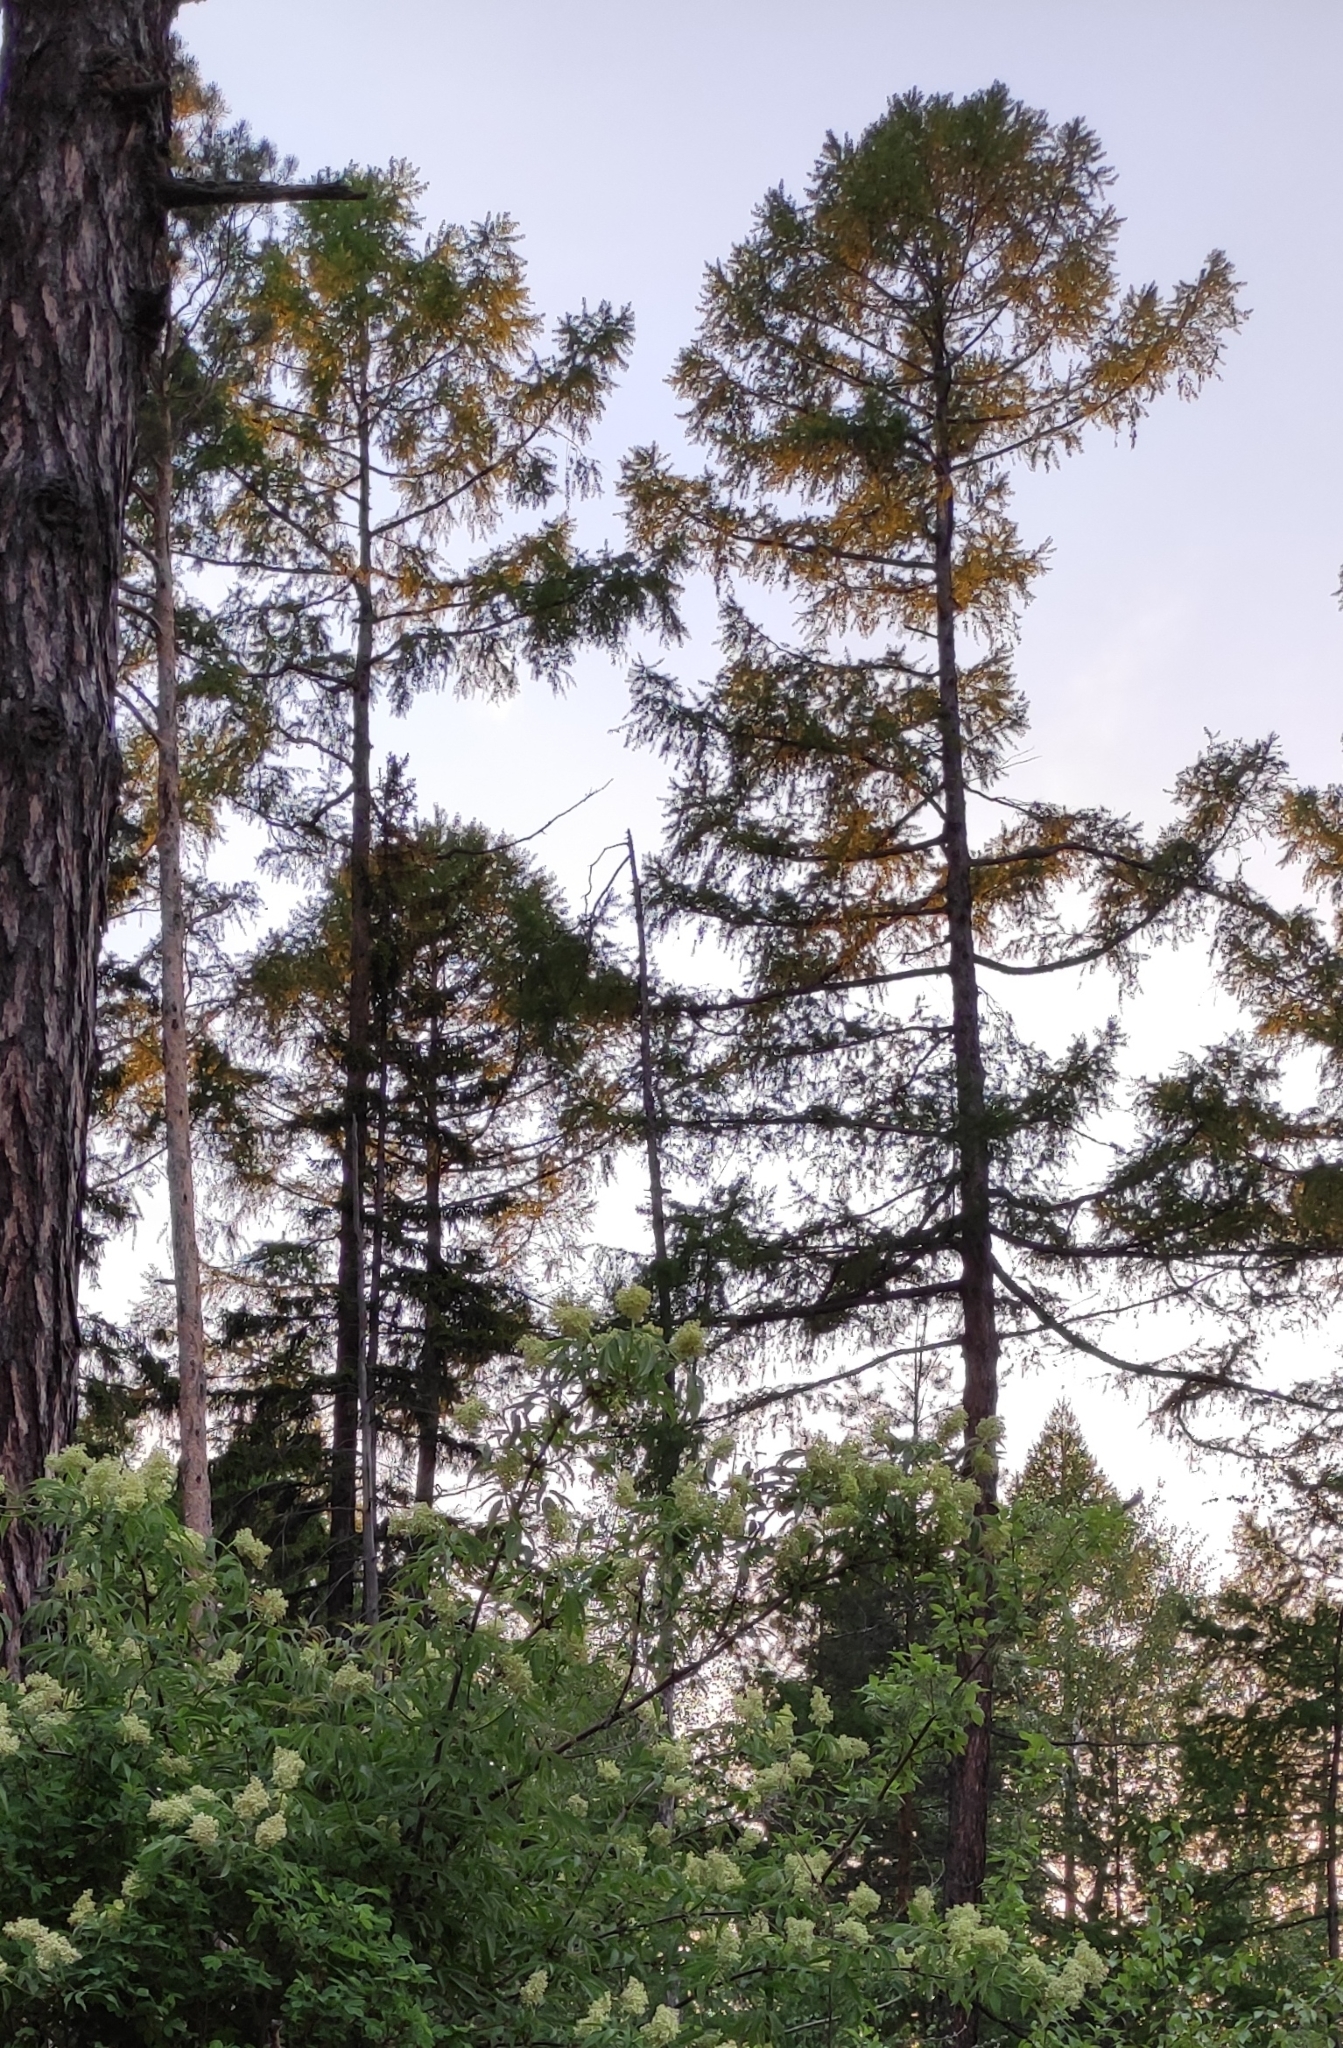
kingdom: Plantae
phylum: Tracheophyta
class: Pinopsida
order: Pinales
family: Pinaceae
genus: Larix
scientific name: Larix sibirica
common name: Siberian larch
